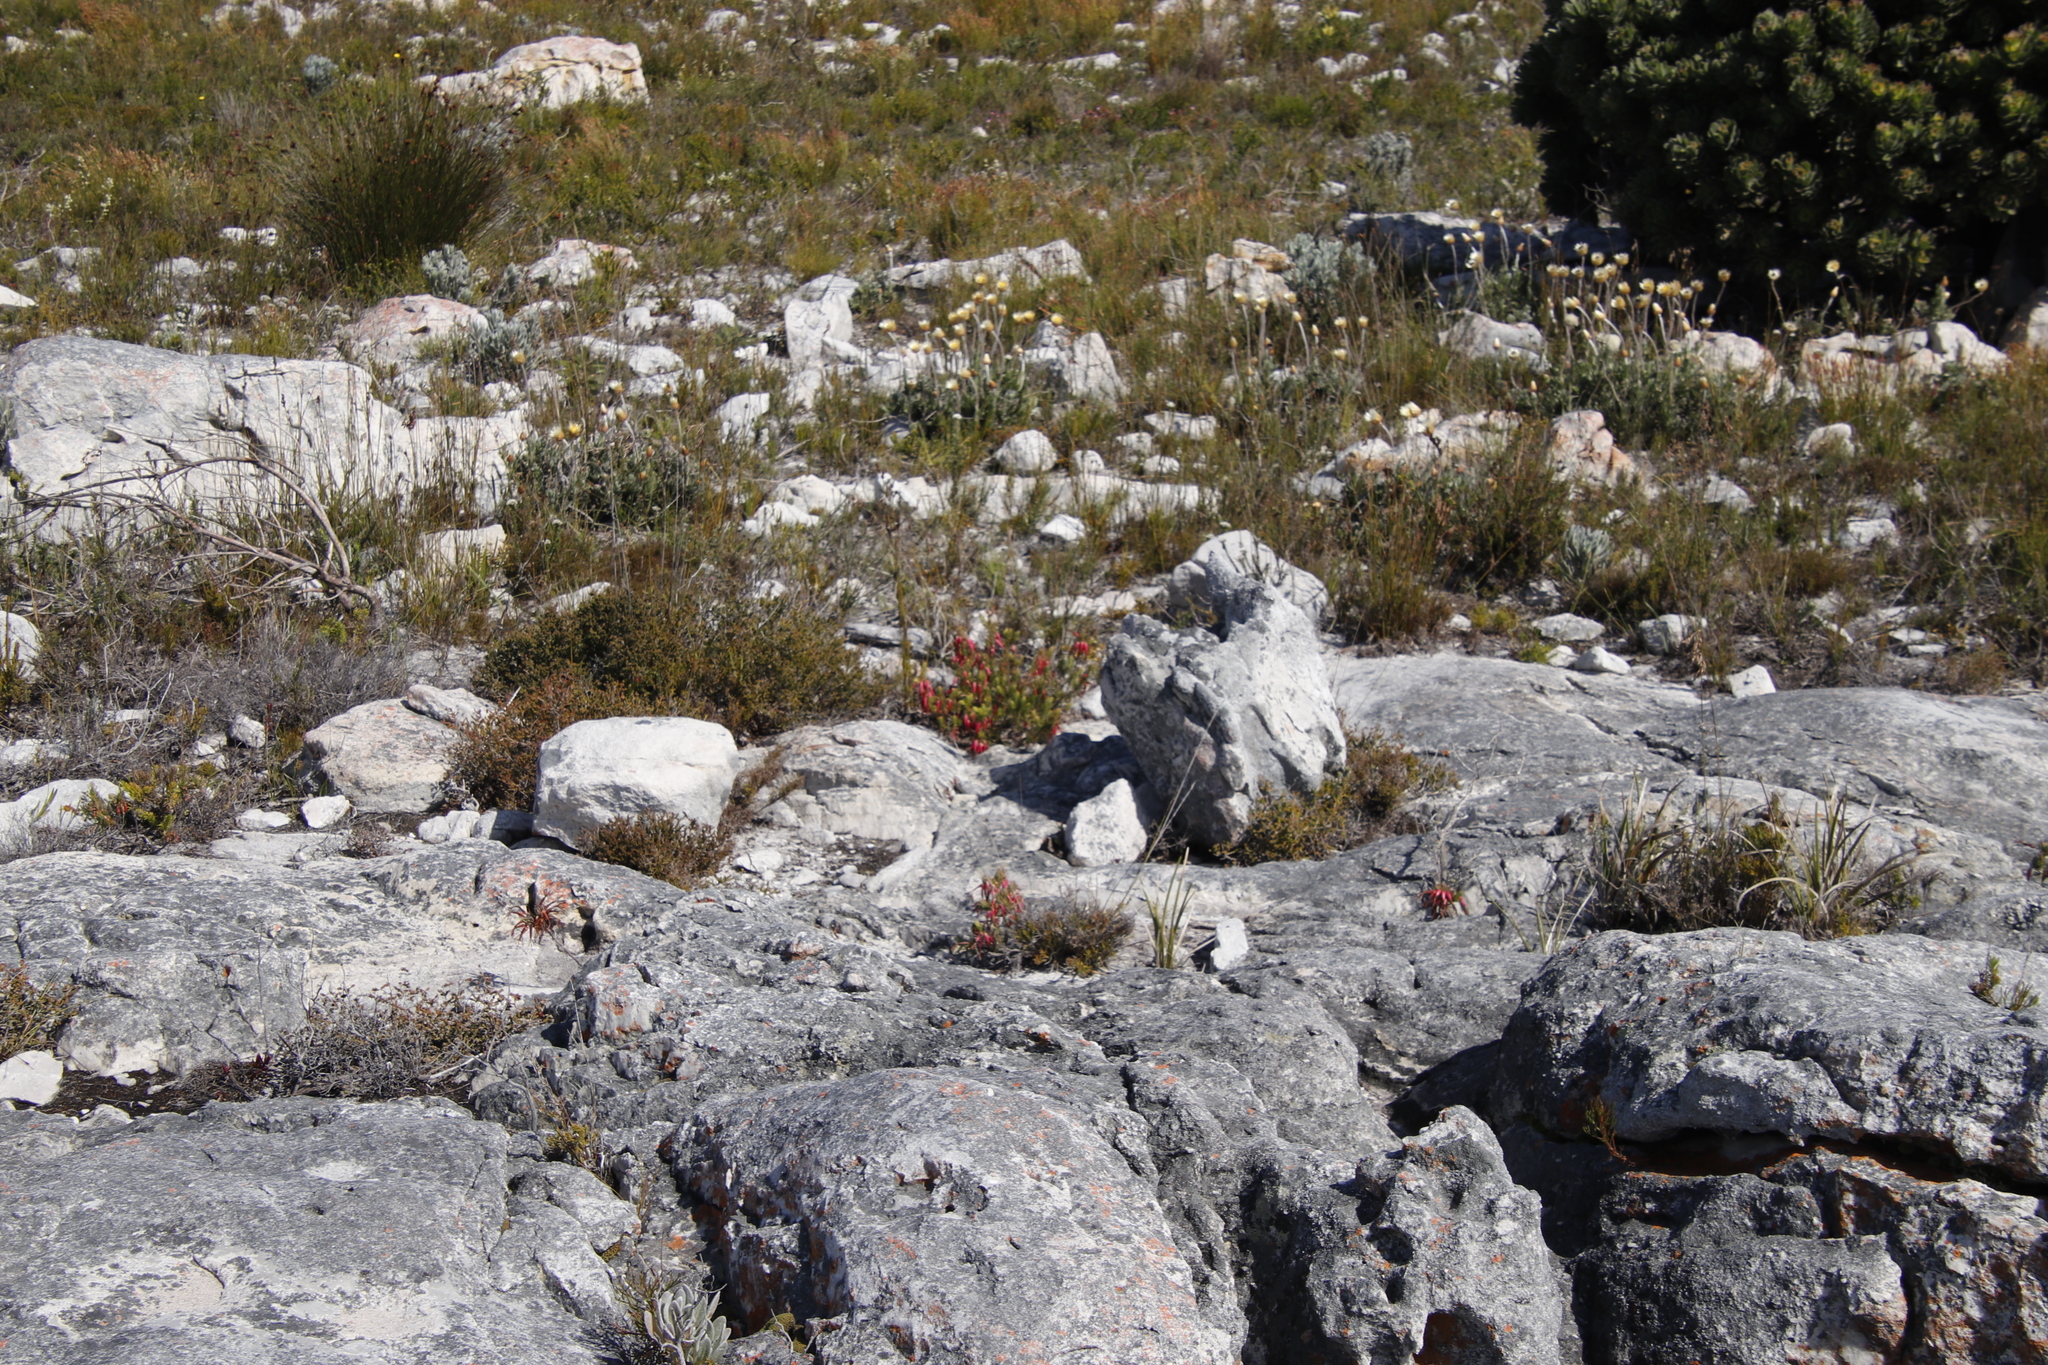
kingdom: Plantae
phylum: Tracheophyta
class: Magnoliopsida
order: Ericales
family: Ericaceae
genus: Erica
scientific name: Erica plukenetii
